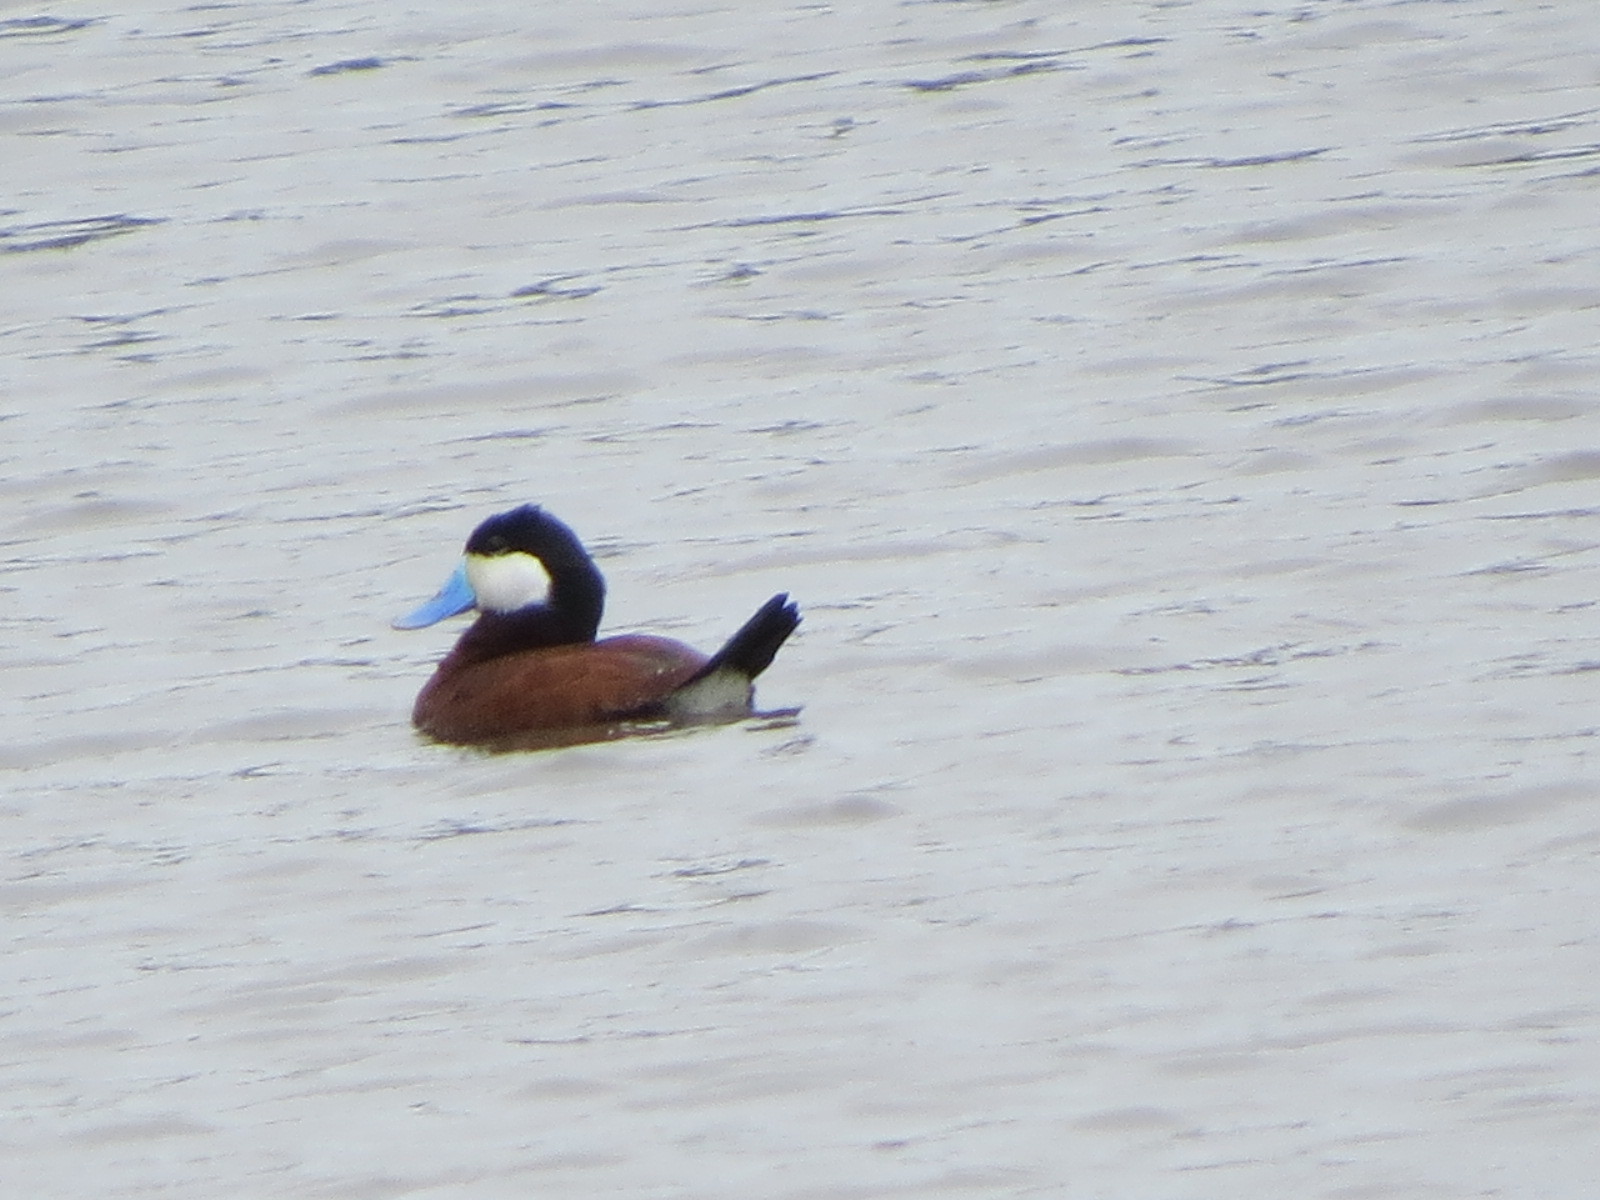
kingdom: Animalia
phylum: Chordata
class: Aves
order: Anseriformes
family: Anatidae
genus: Oxyura
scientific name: Oxyura jamaicensis
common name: Ruddy duck
